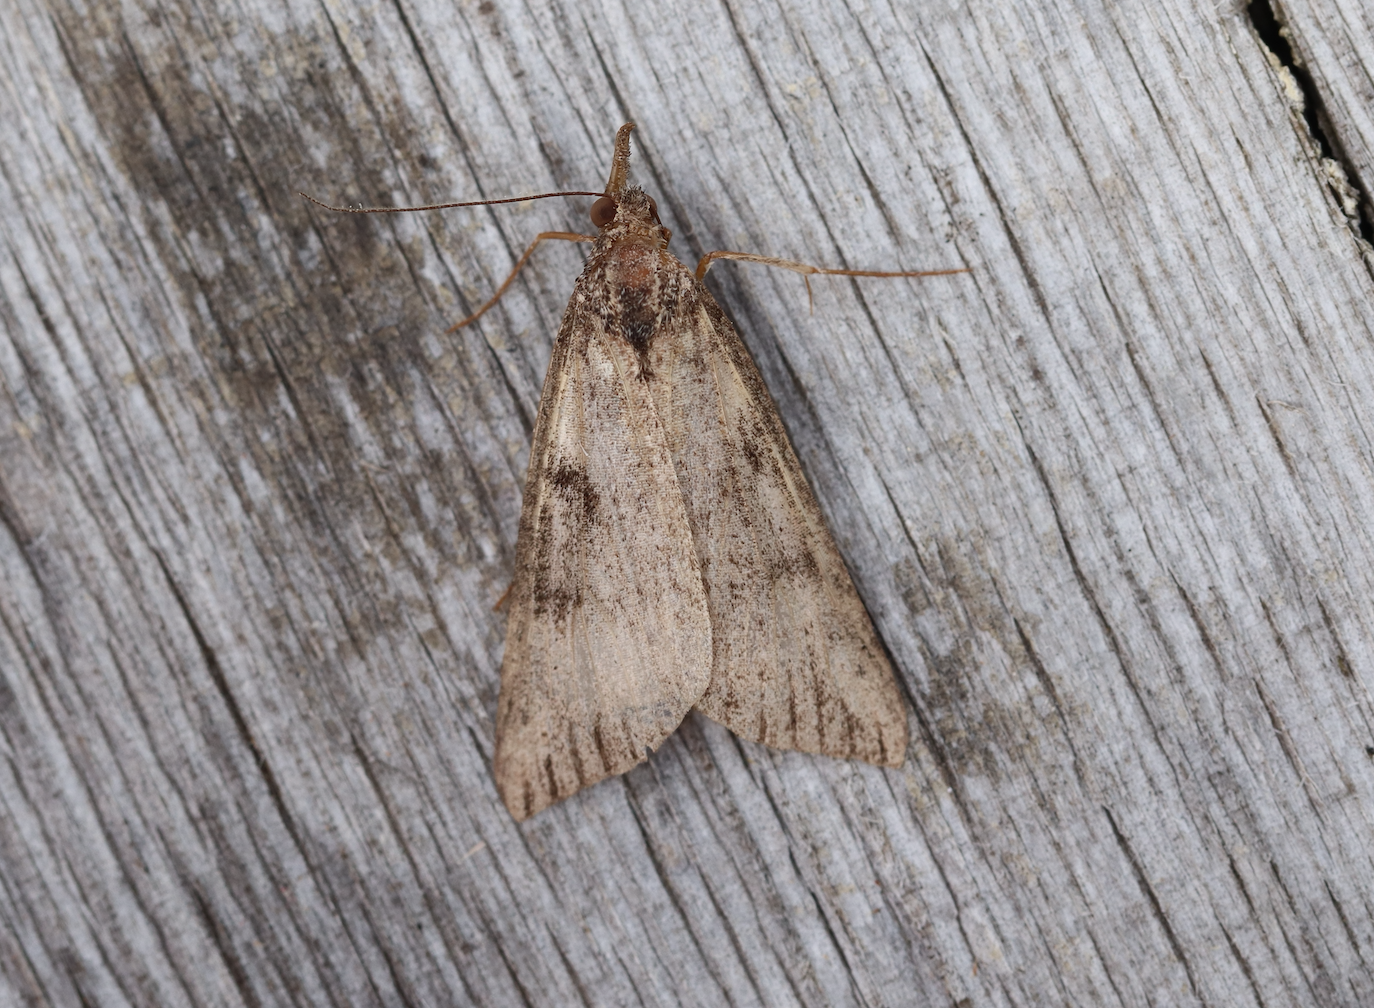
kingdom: Animalia
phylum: Arthropoda
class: Insecta
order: Lepidoptera
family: Erebidae
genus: Hypena
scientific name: Hypena obesalis
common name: Paignton snout
